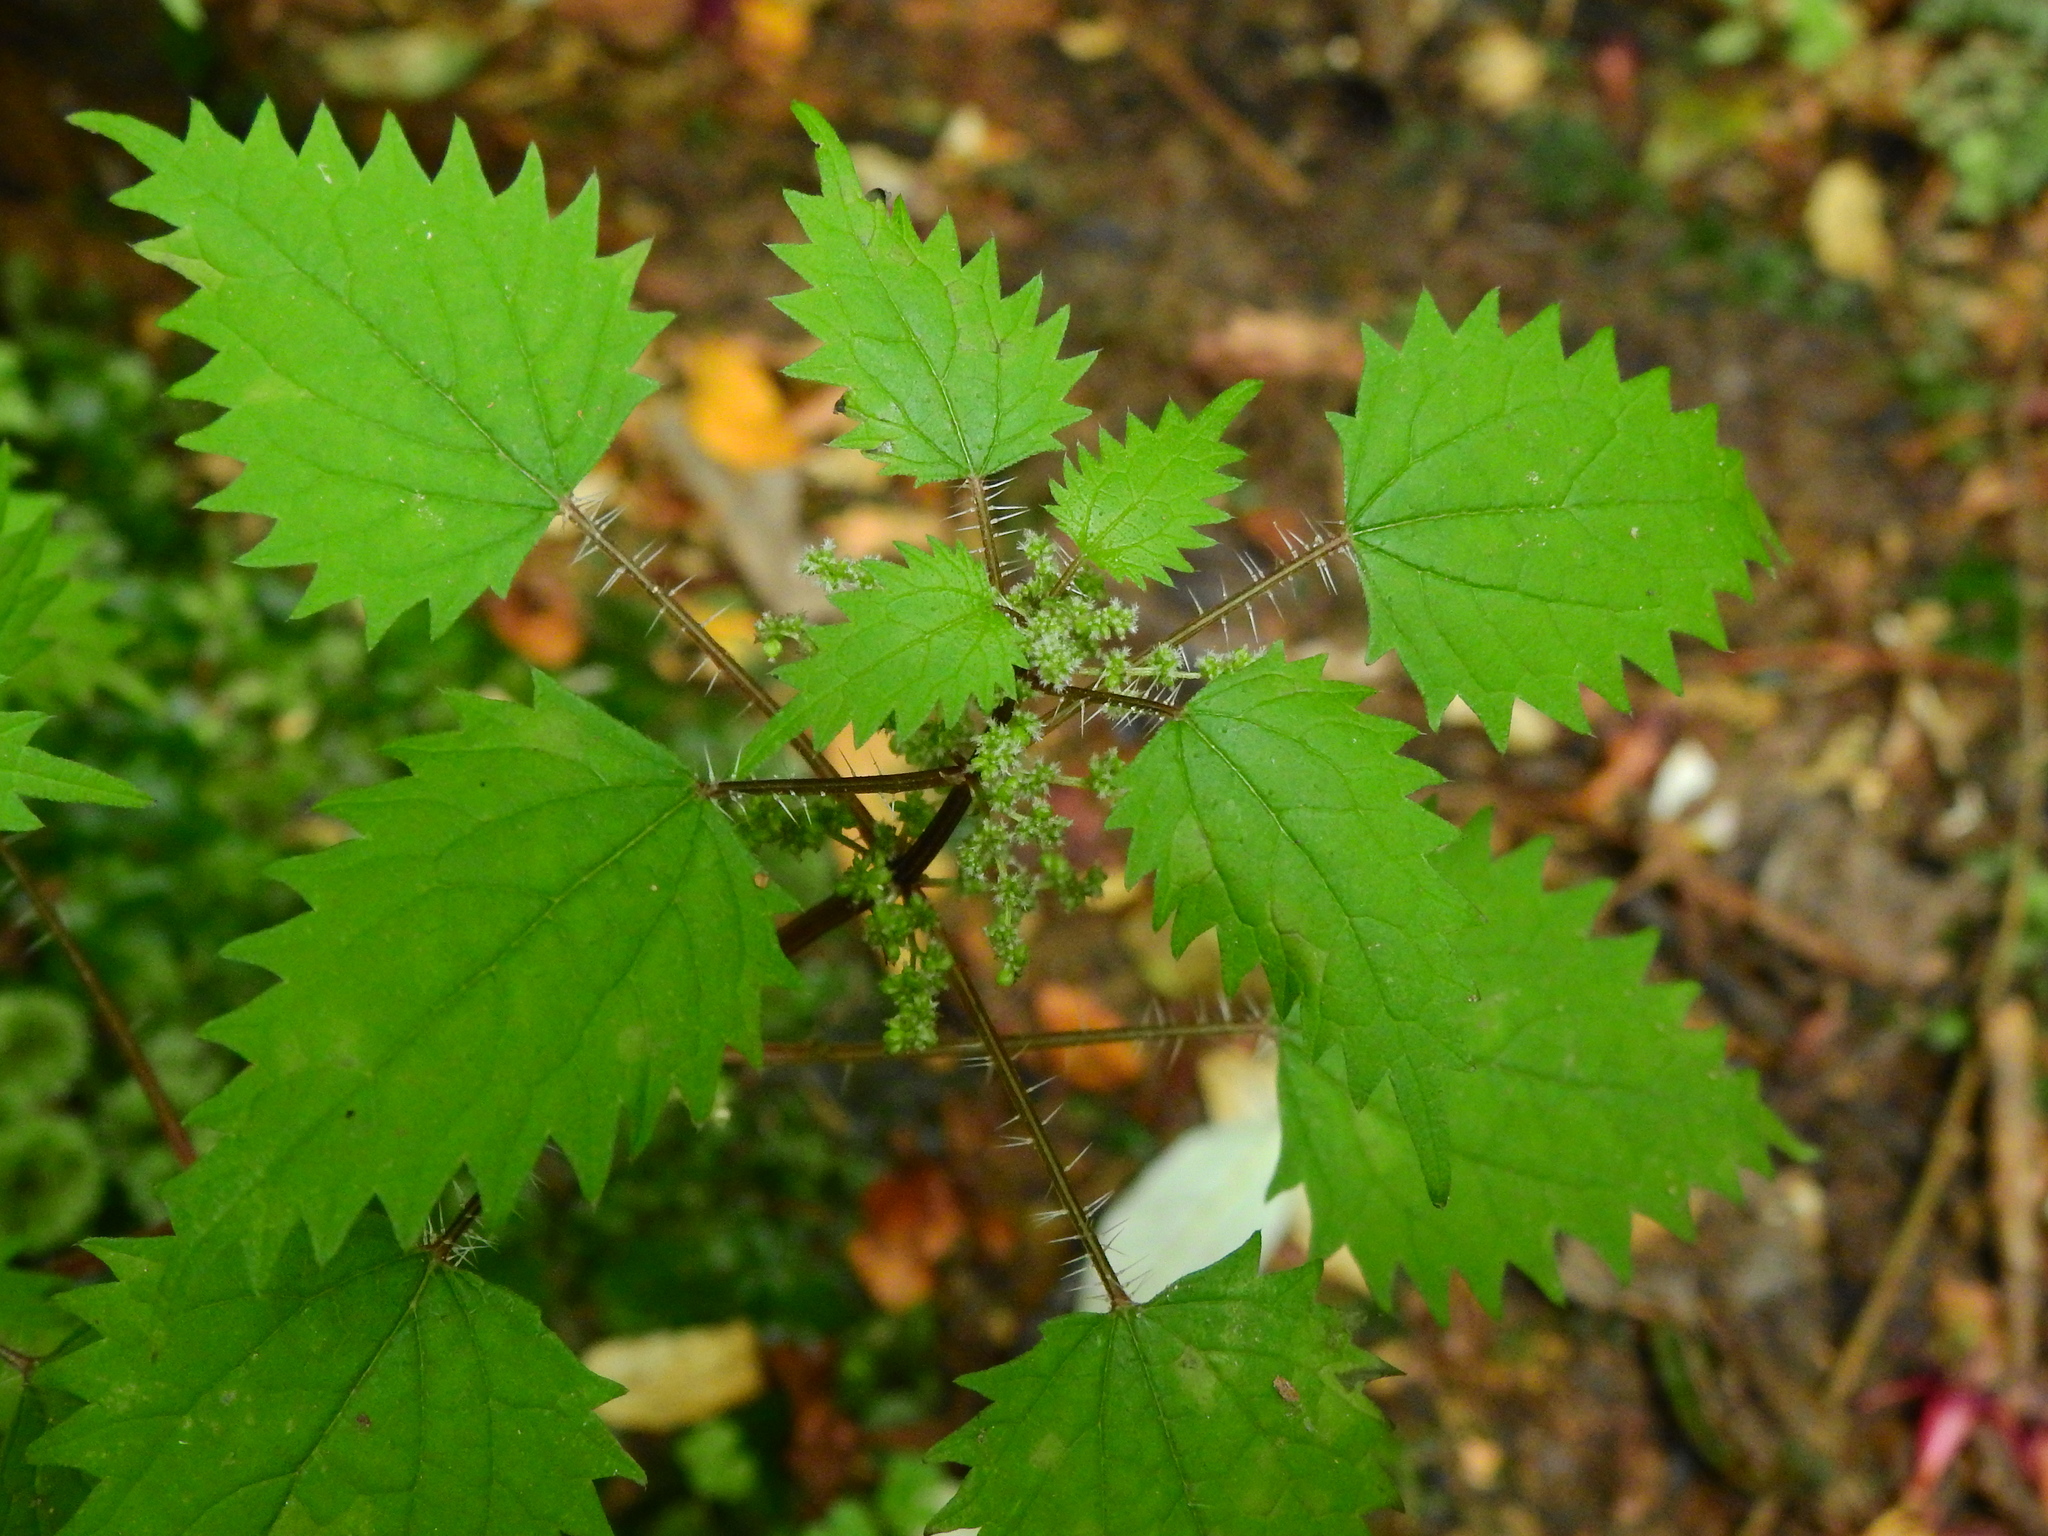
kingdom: Plantae
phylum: Tracheophyta
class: Magnoliopsida
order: Rosales
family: Urticaceae
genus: Urtica
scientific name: Urtica sykesii
